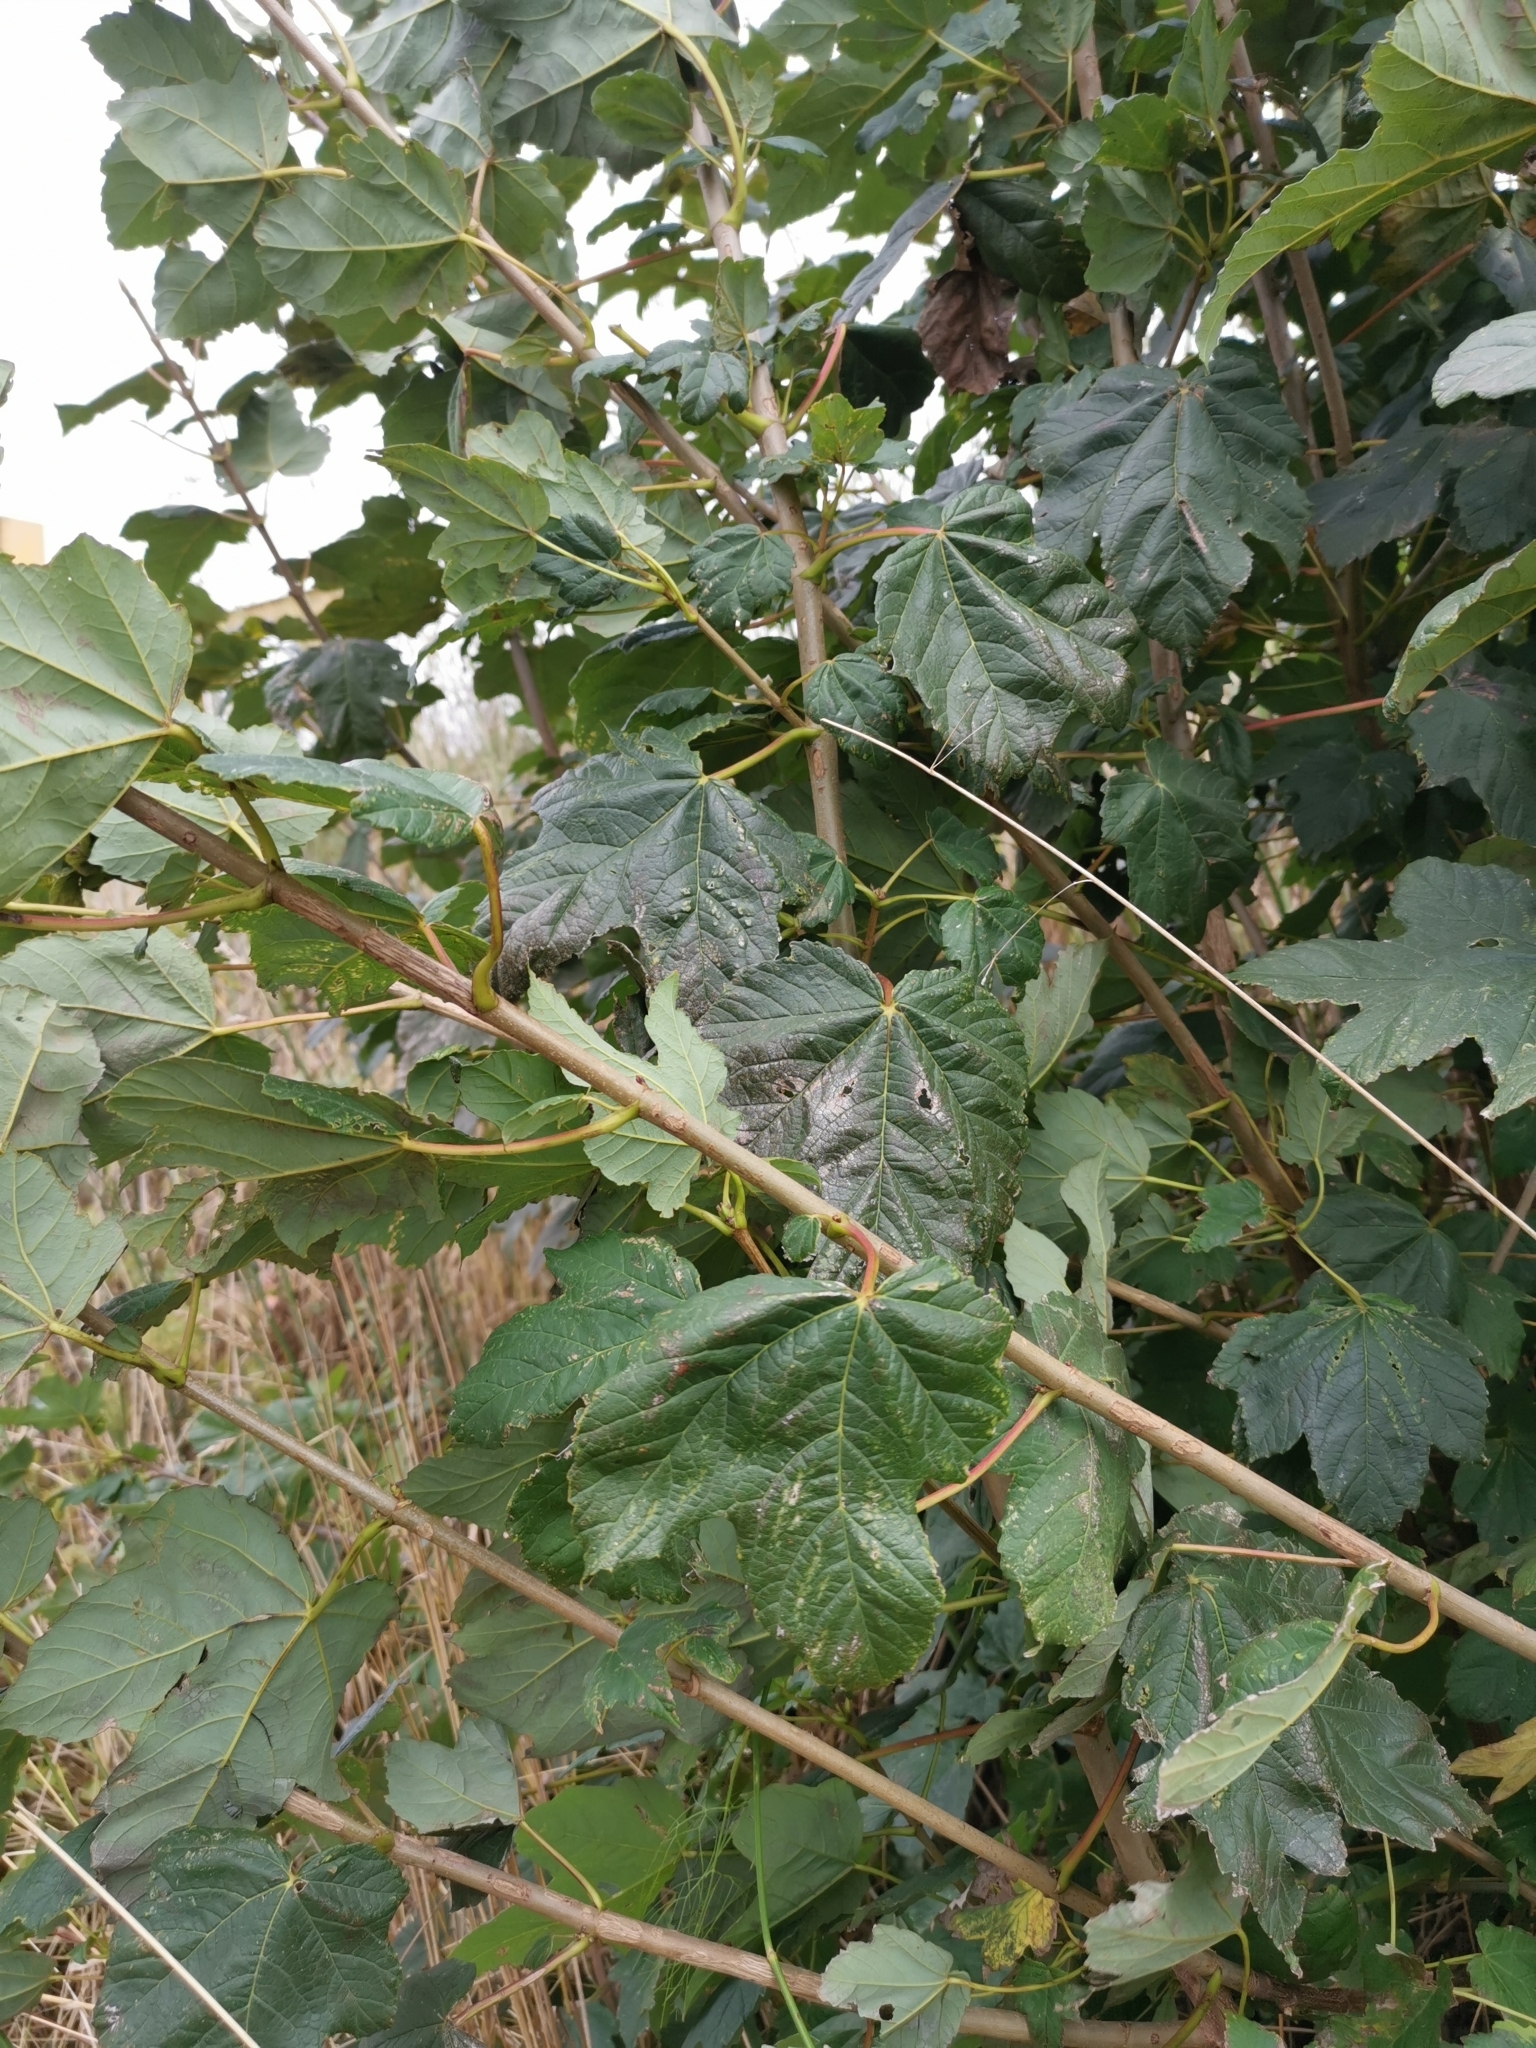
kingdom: Plantae
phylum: Tracheophyta
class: Magnoliopsida
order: Sapindales
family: Sapindaceae
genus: Acer
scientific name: Acer pseudoplatanus
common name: Sycamore
